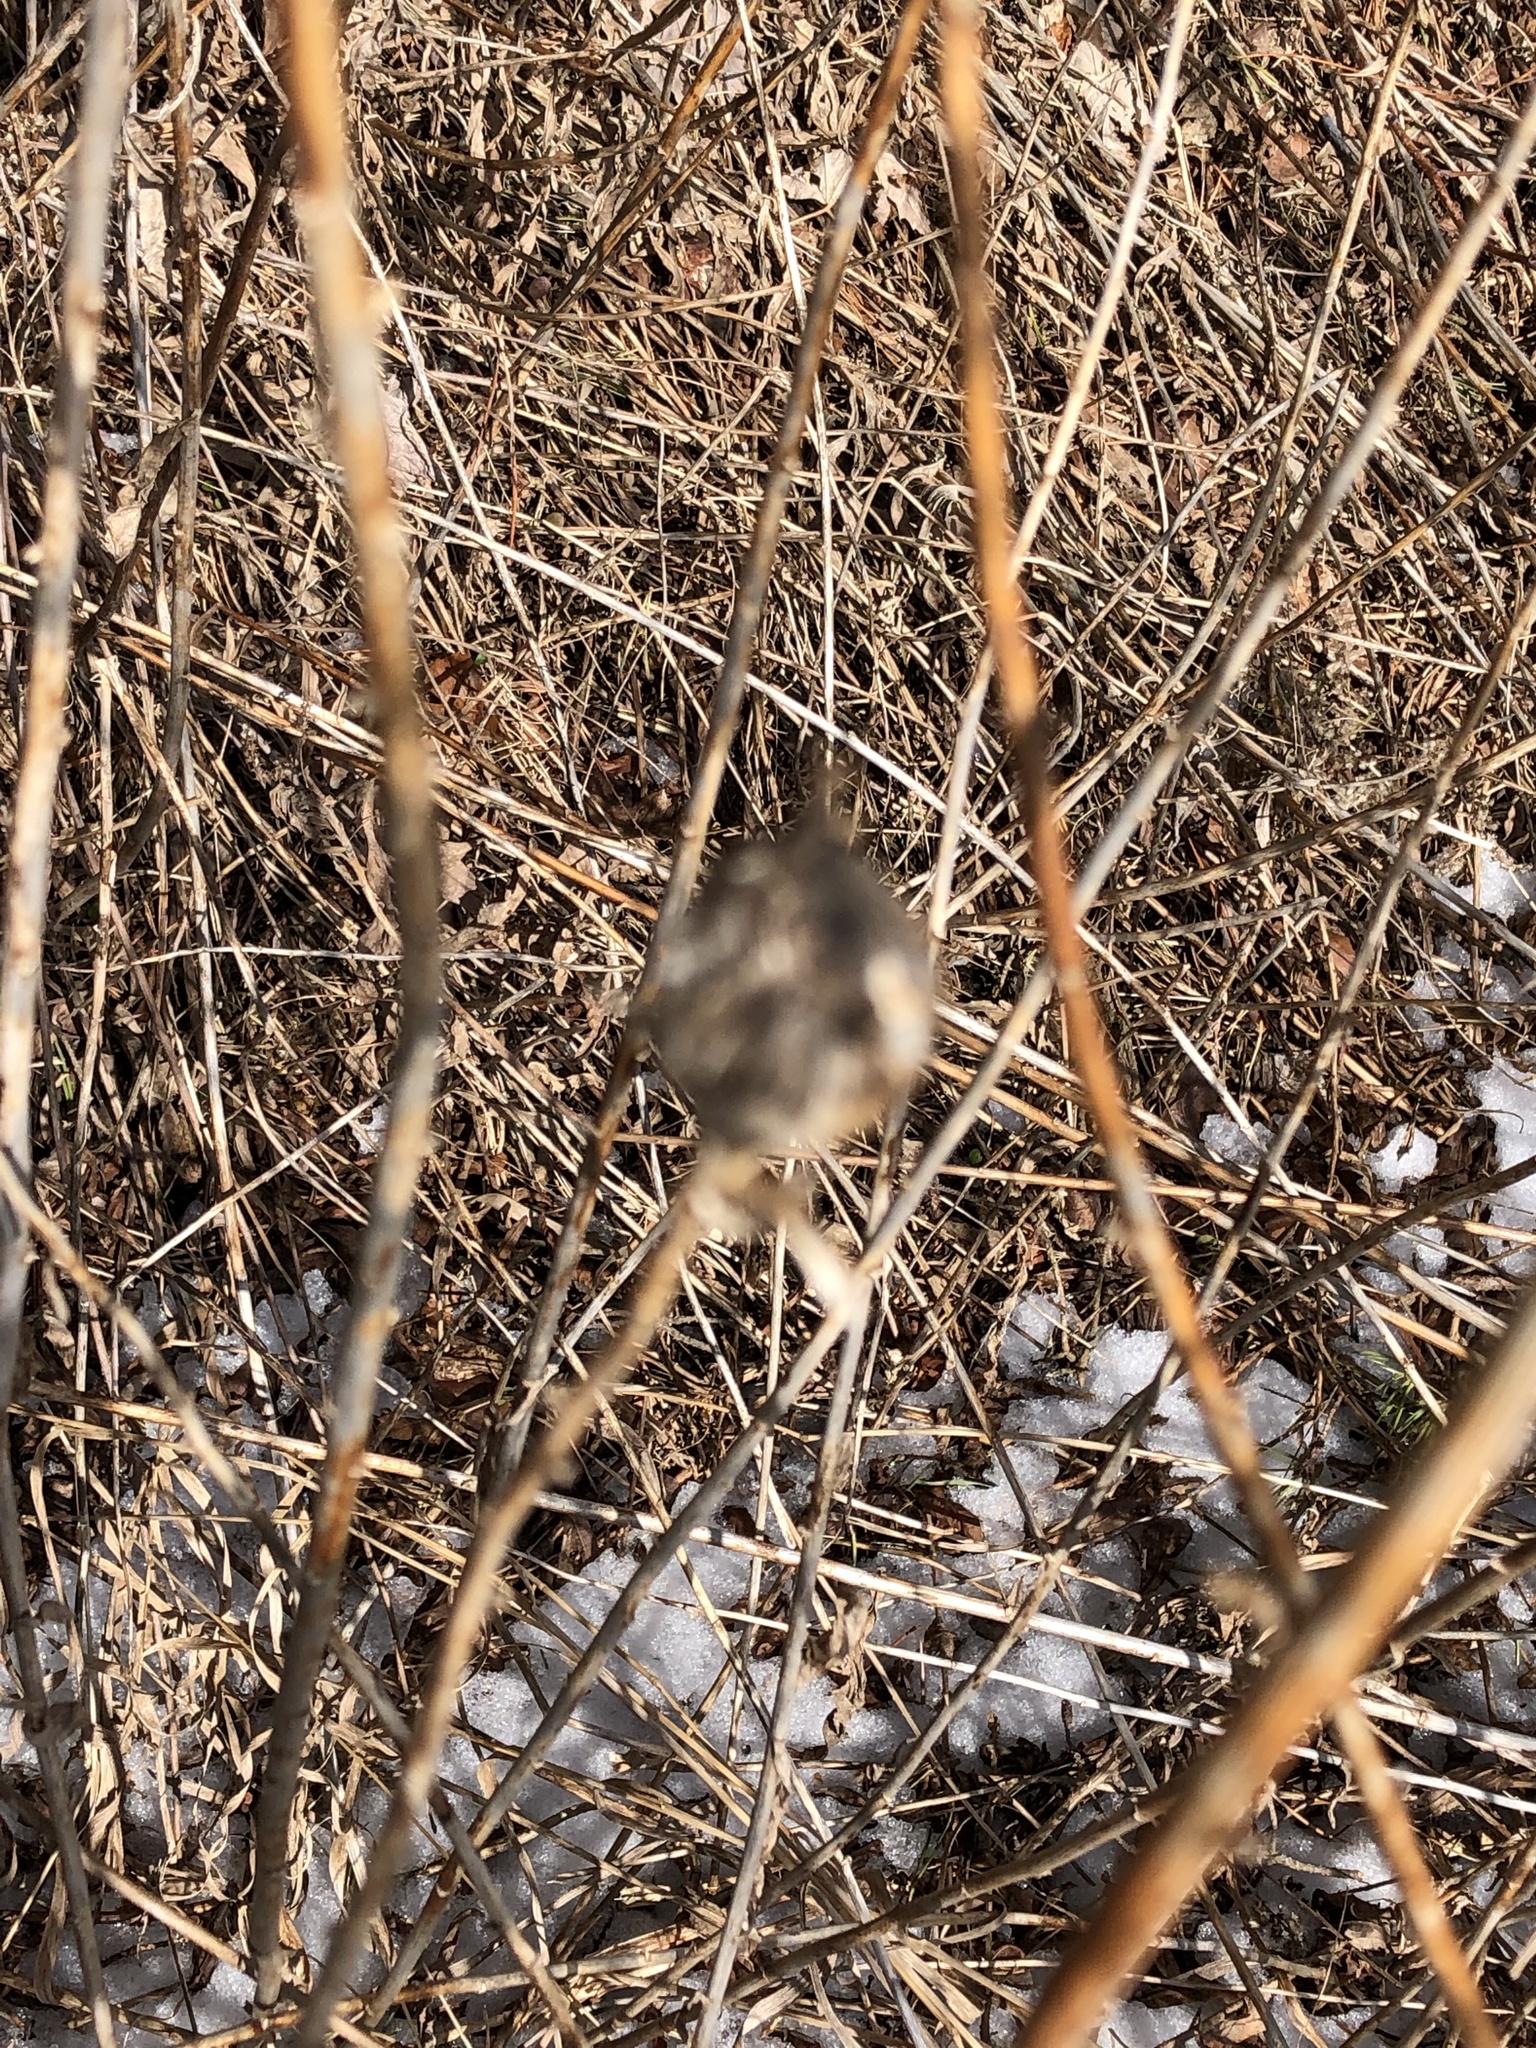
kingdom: Animalia
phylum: Arthropoda
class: Insecta
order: Diptera
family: Tephritidae
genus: Eurosta
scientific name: Eurosta solidaginis
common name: Goldenrod gall fly
